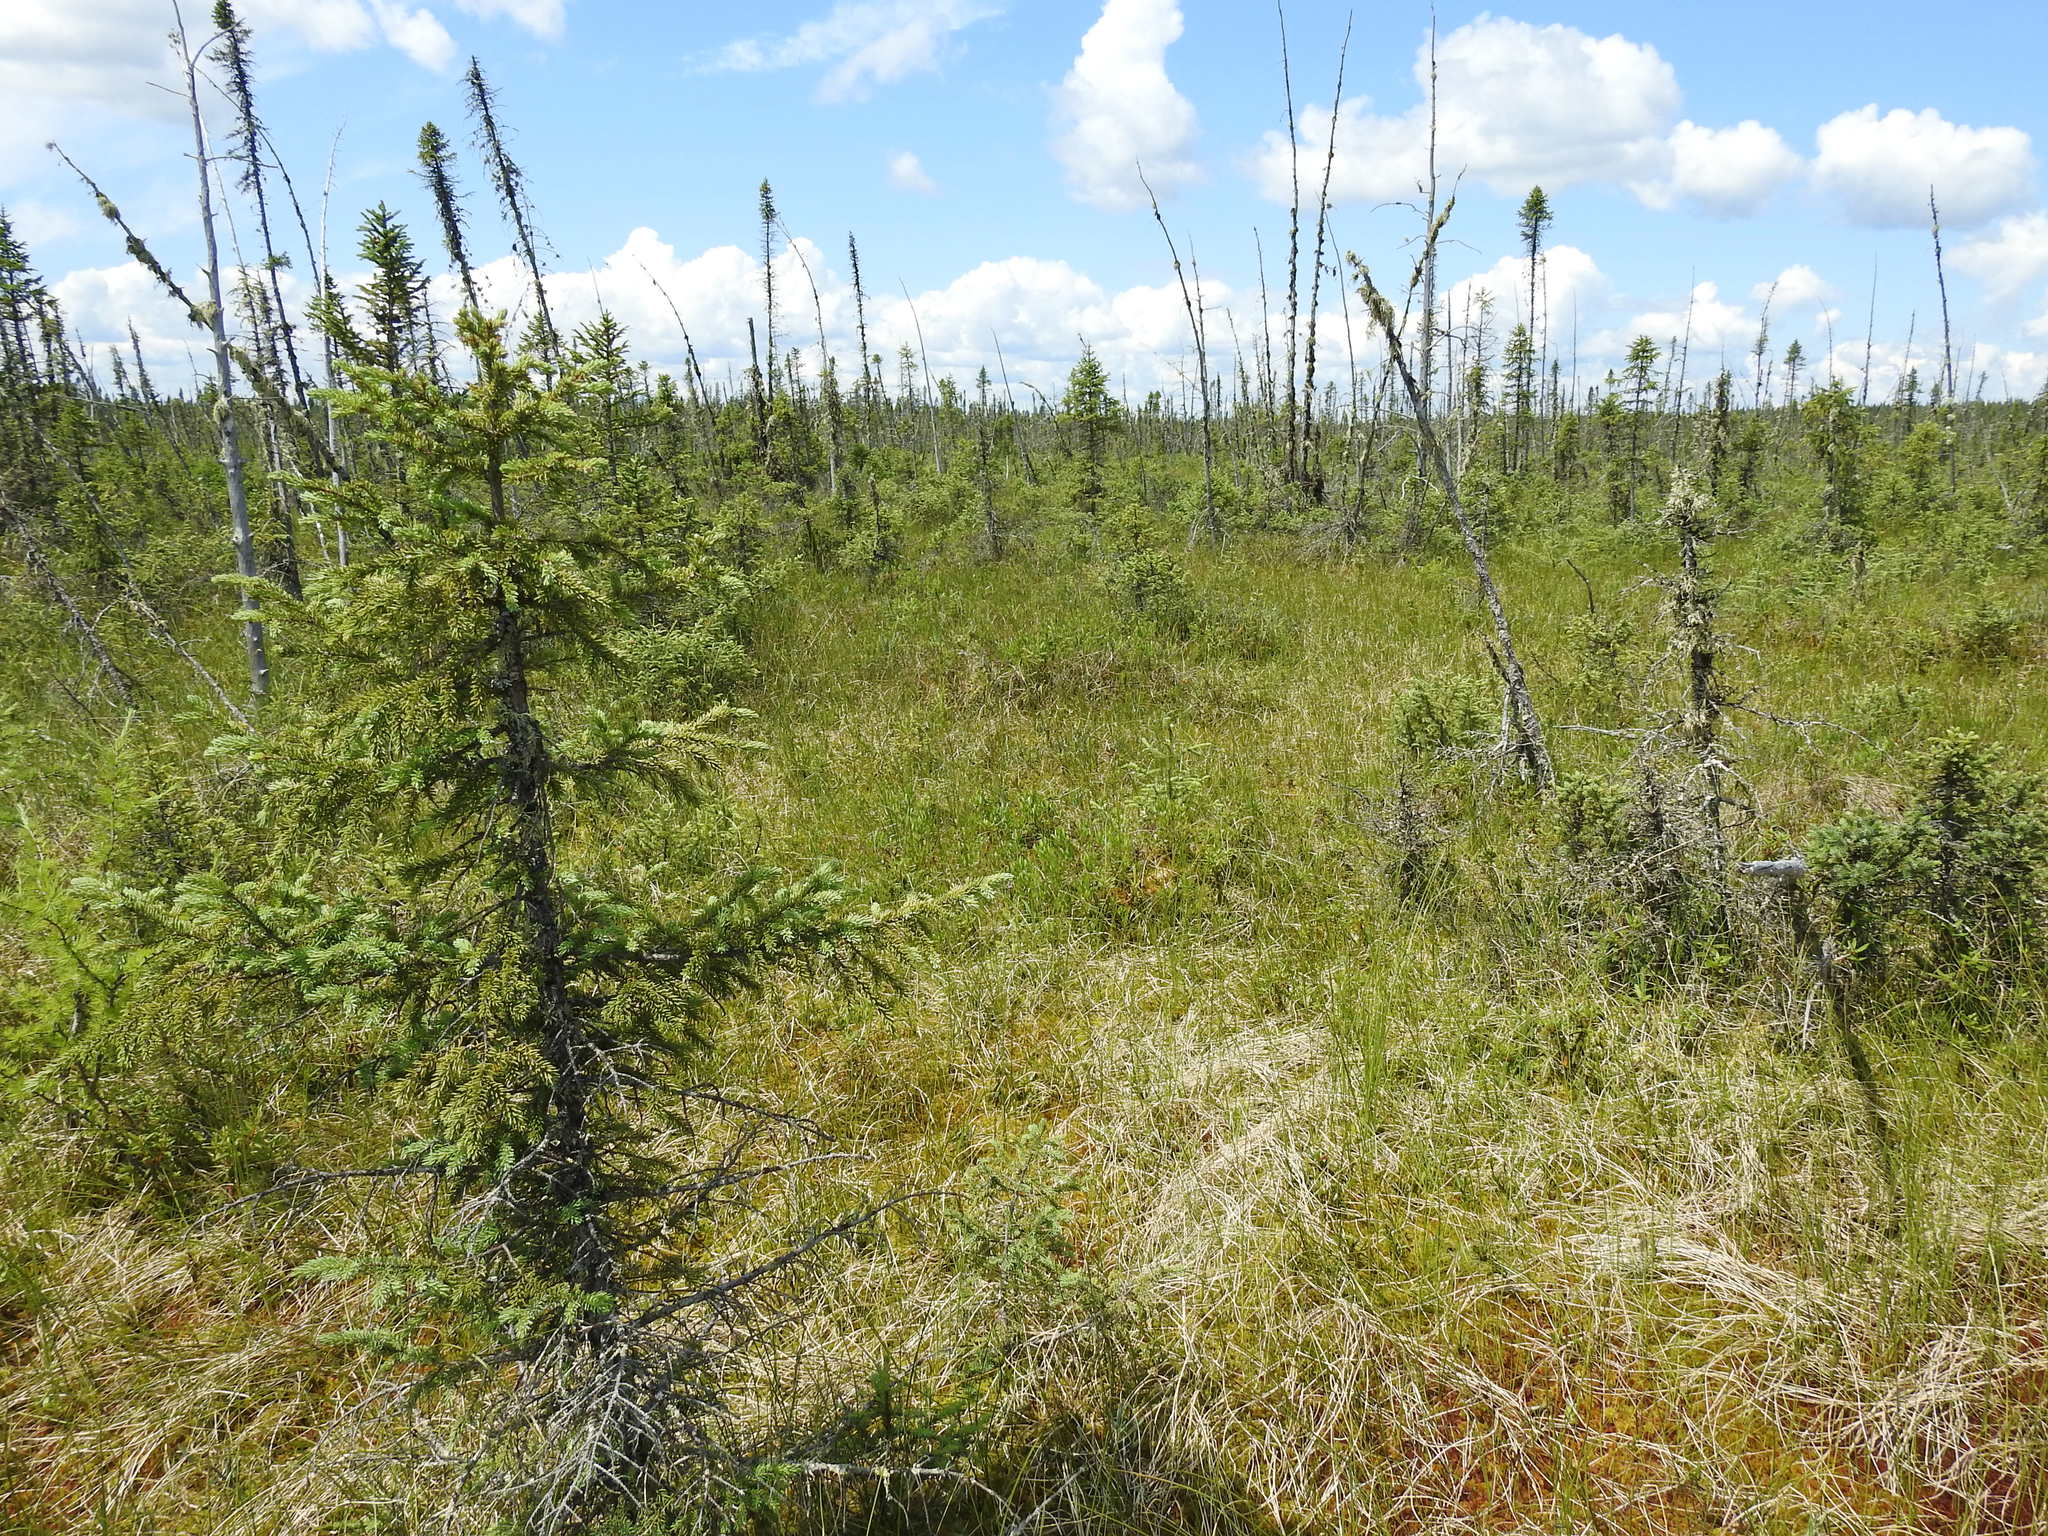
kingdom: Plantae
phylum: Tracheophyta
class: Pinopsida
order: Pinales
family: Pinaceae
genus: Picea
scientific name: Picea mariana
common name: Black spruce
